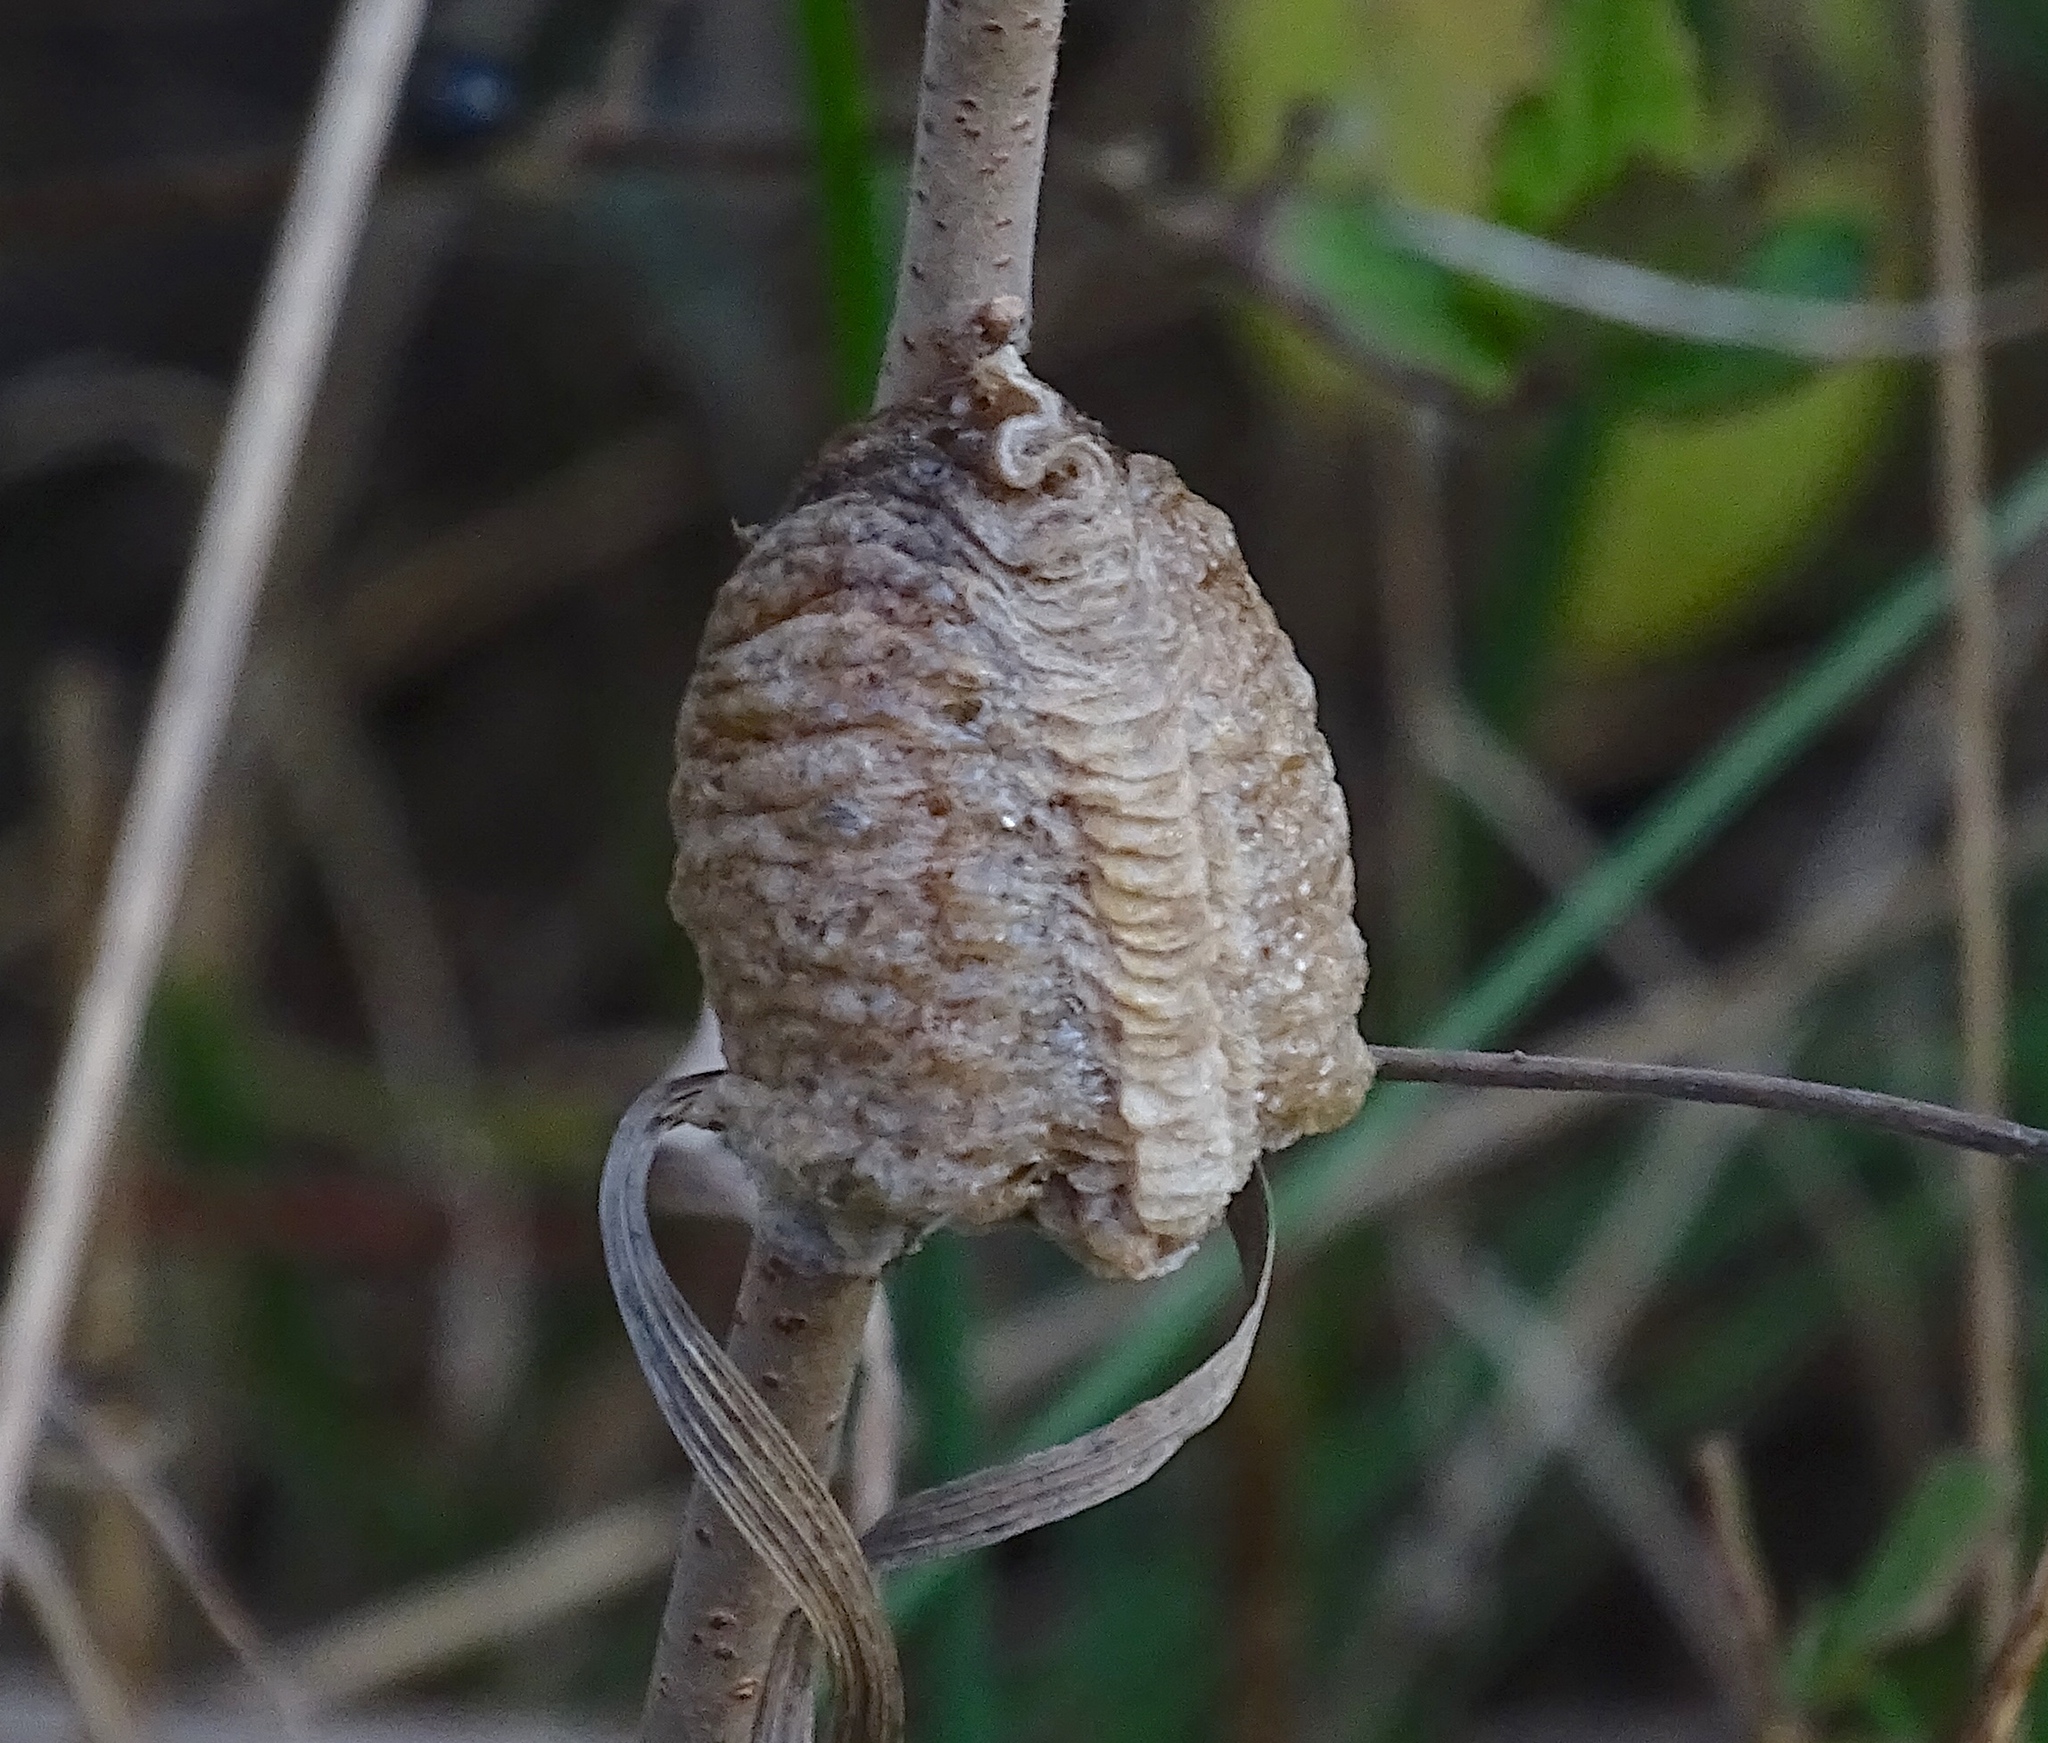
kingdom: Animalia
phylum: Arthropoda
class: Insecta
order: Mantodea
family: Mantidae
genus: Tenodera
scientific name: Tenodera sinensis
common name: Chinese mantis
